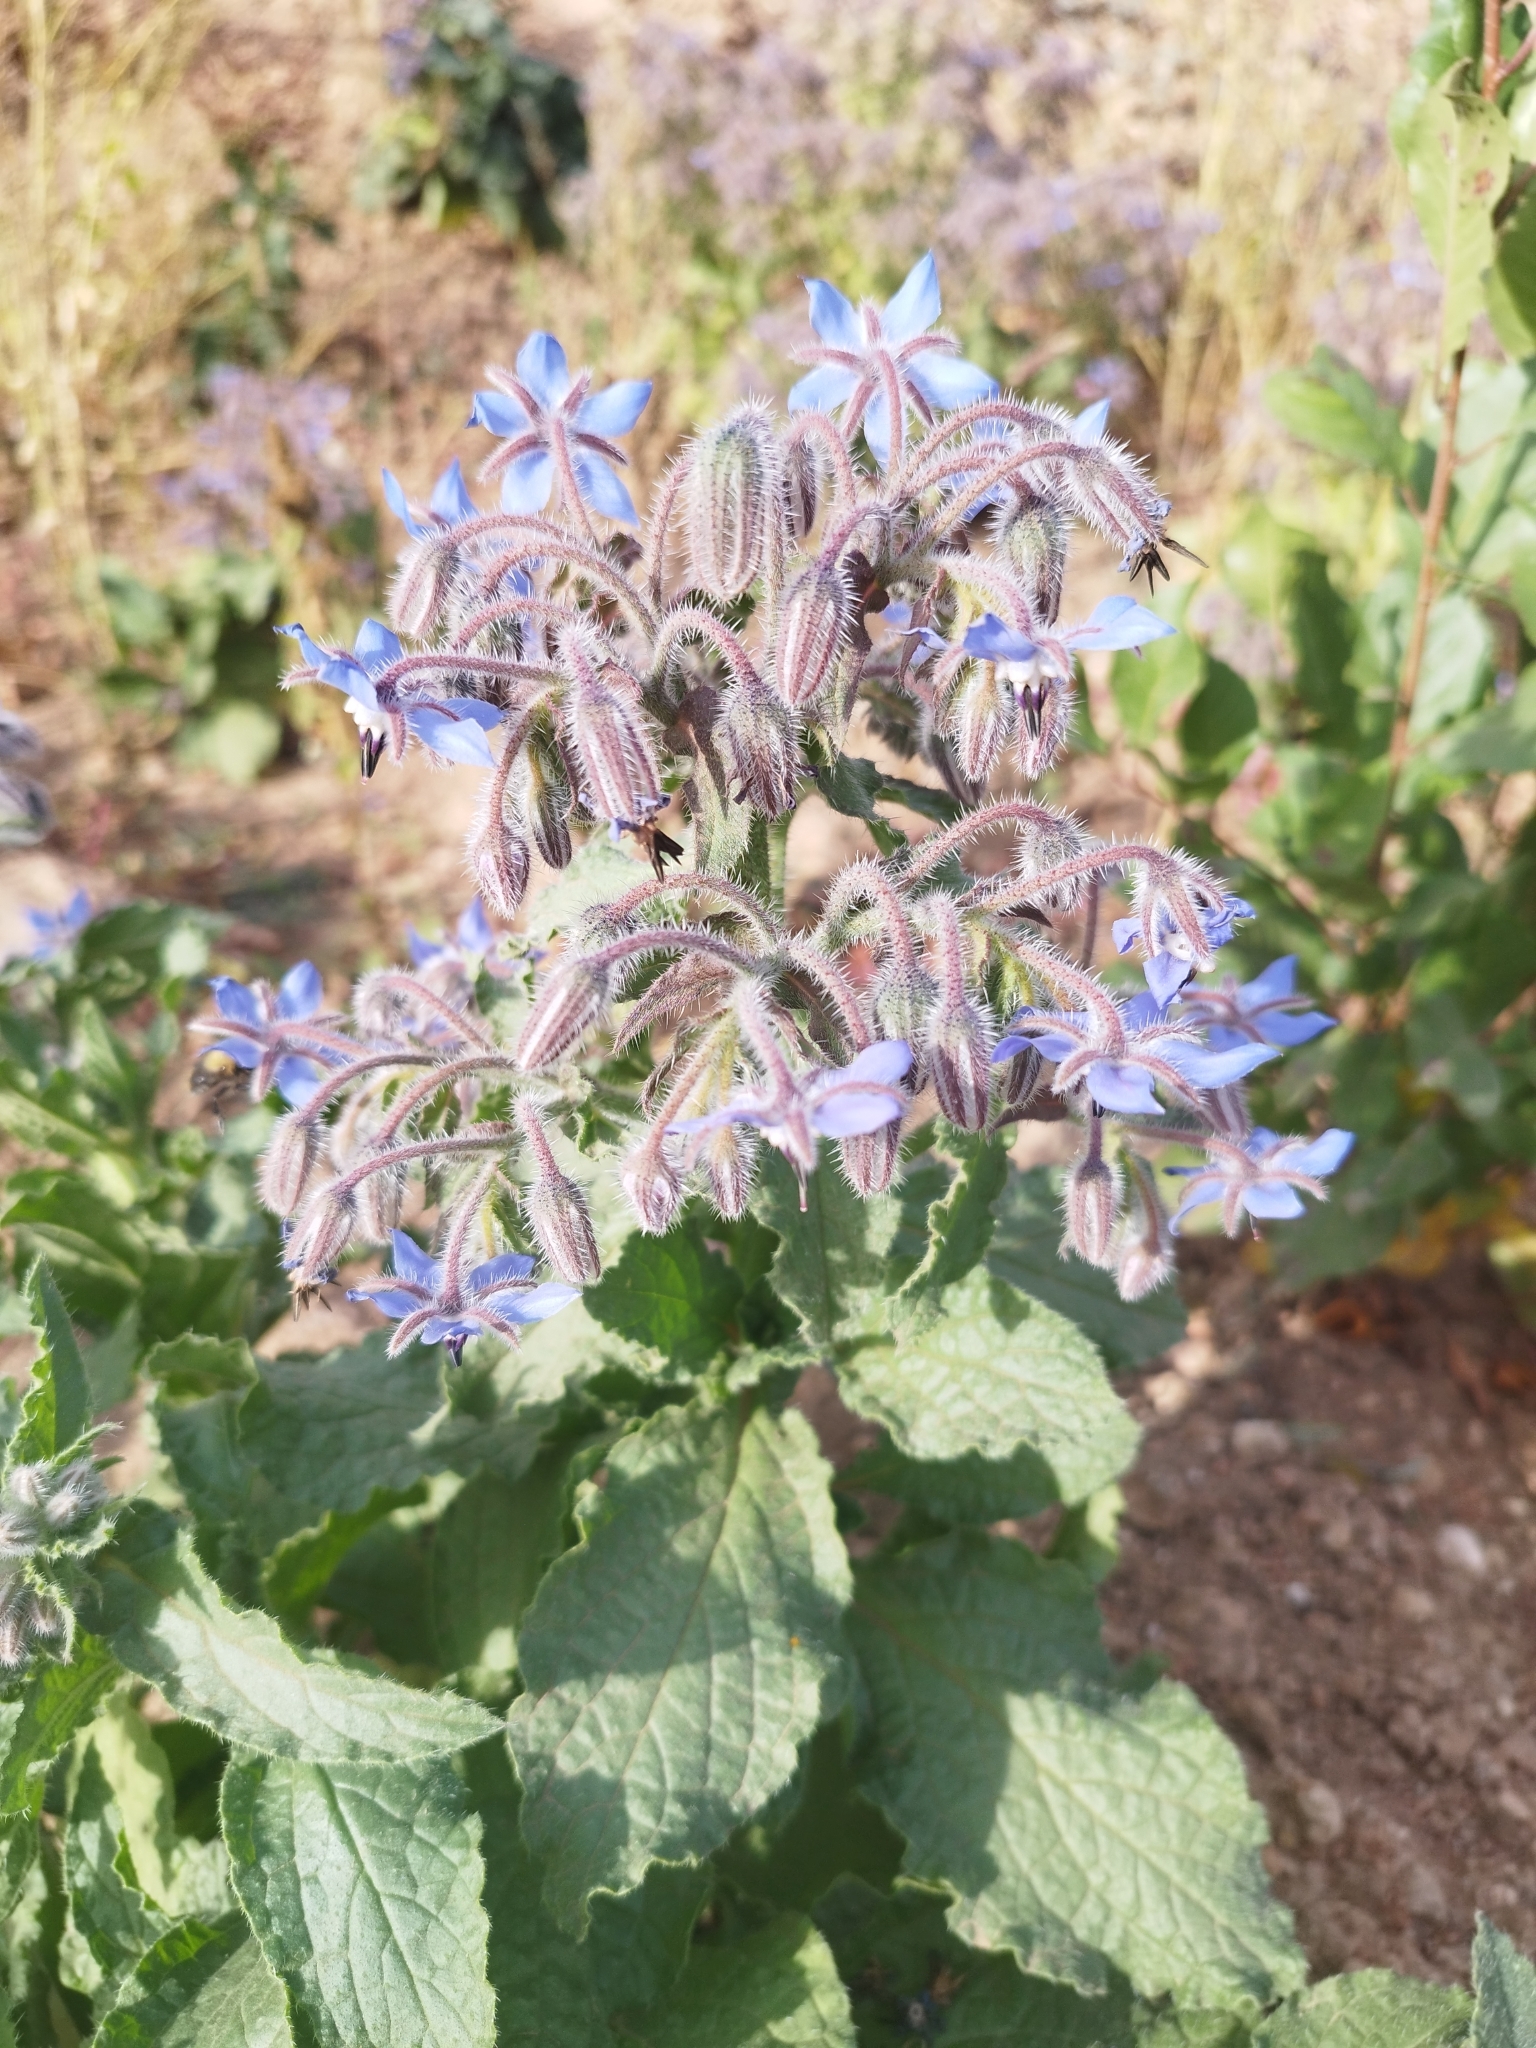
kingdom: Plantae
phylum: Tracheophyta
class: Magnoliopsida
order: Boraginales
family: Boraginaceae
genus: Borago
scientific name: Borago officinalis
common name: Borage
